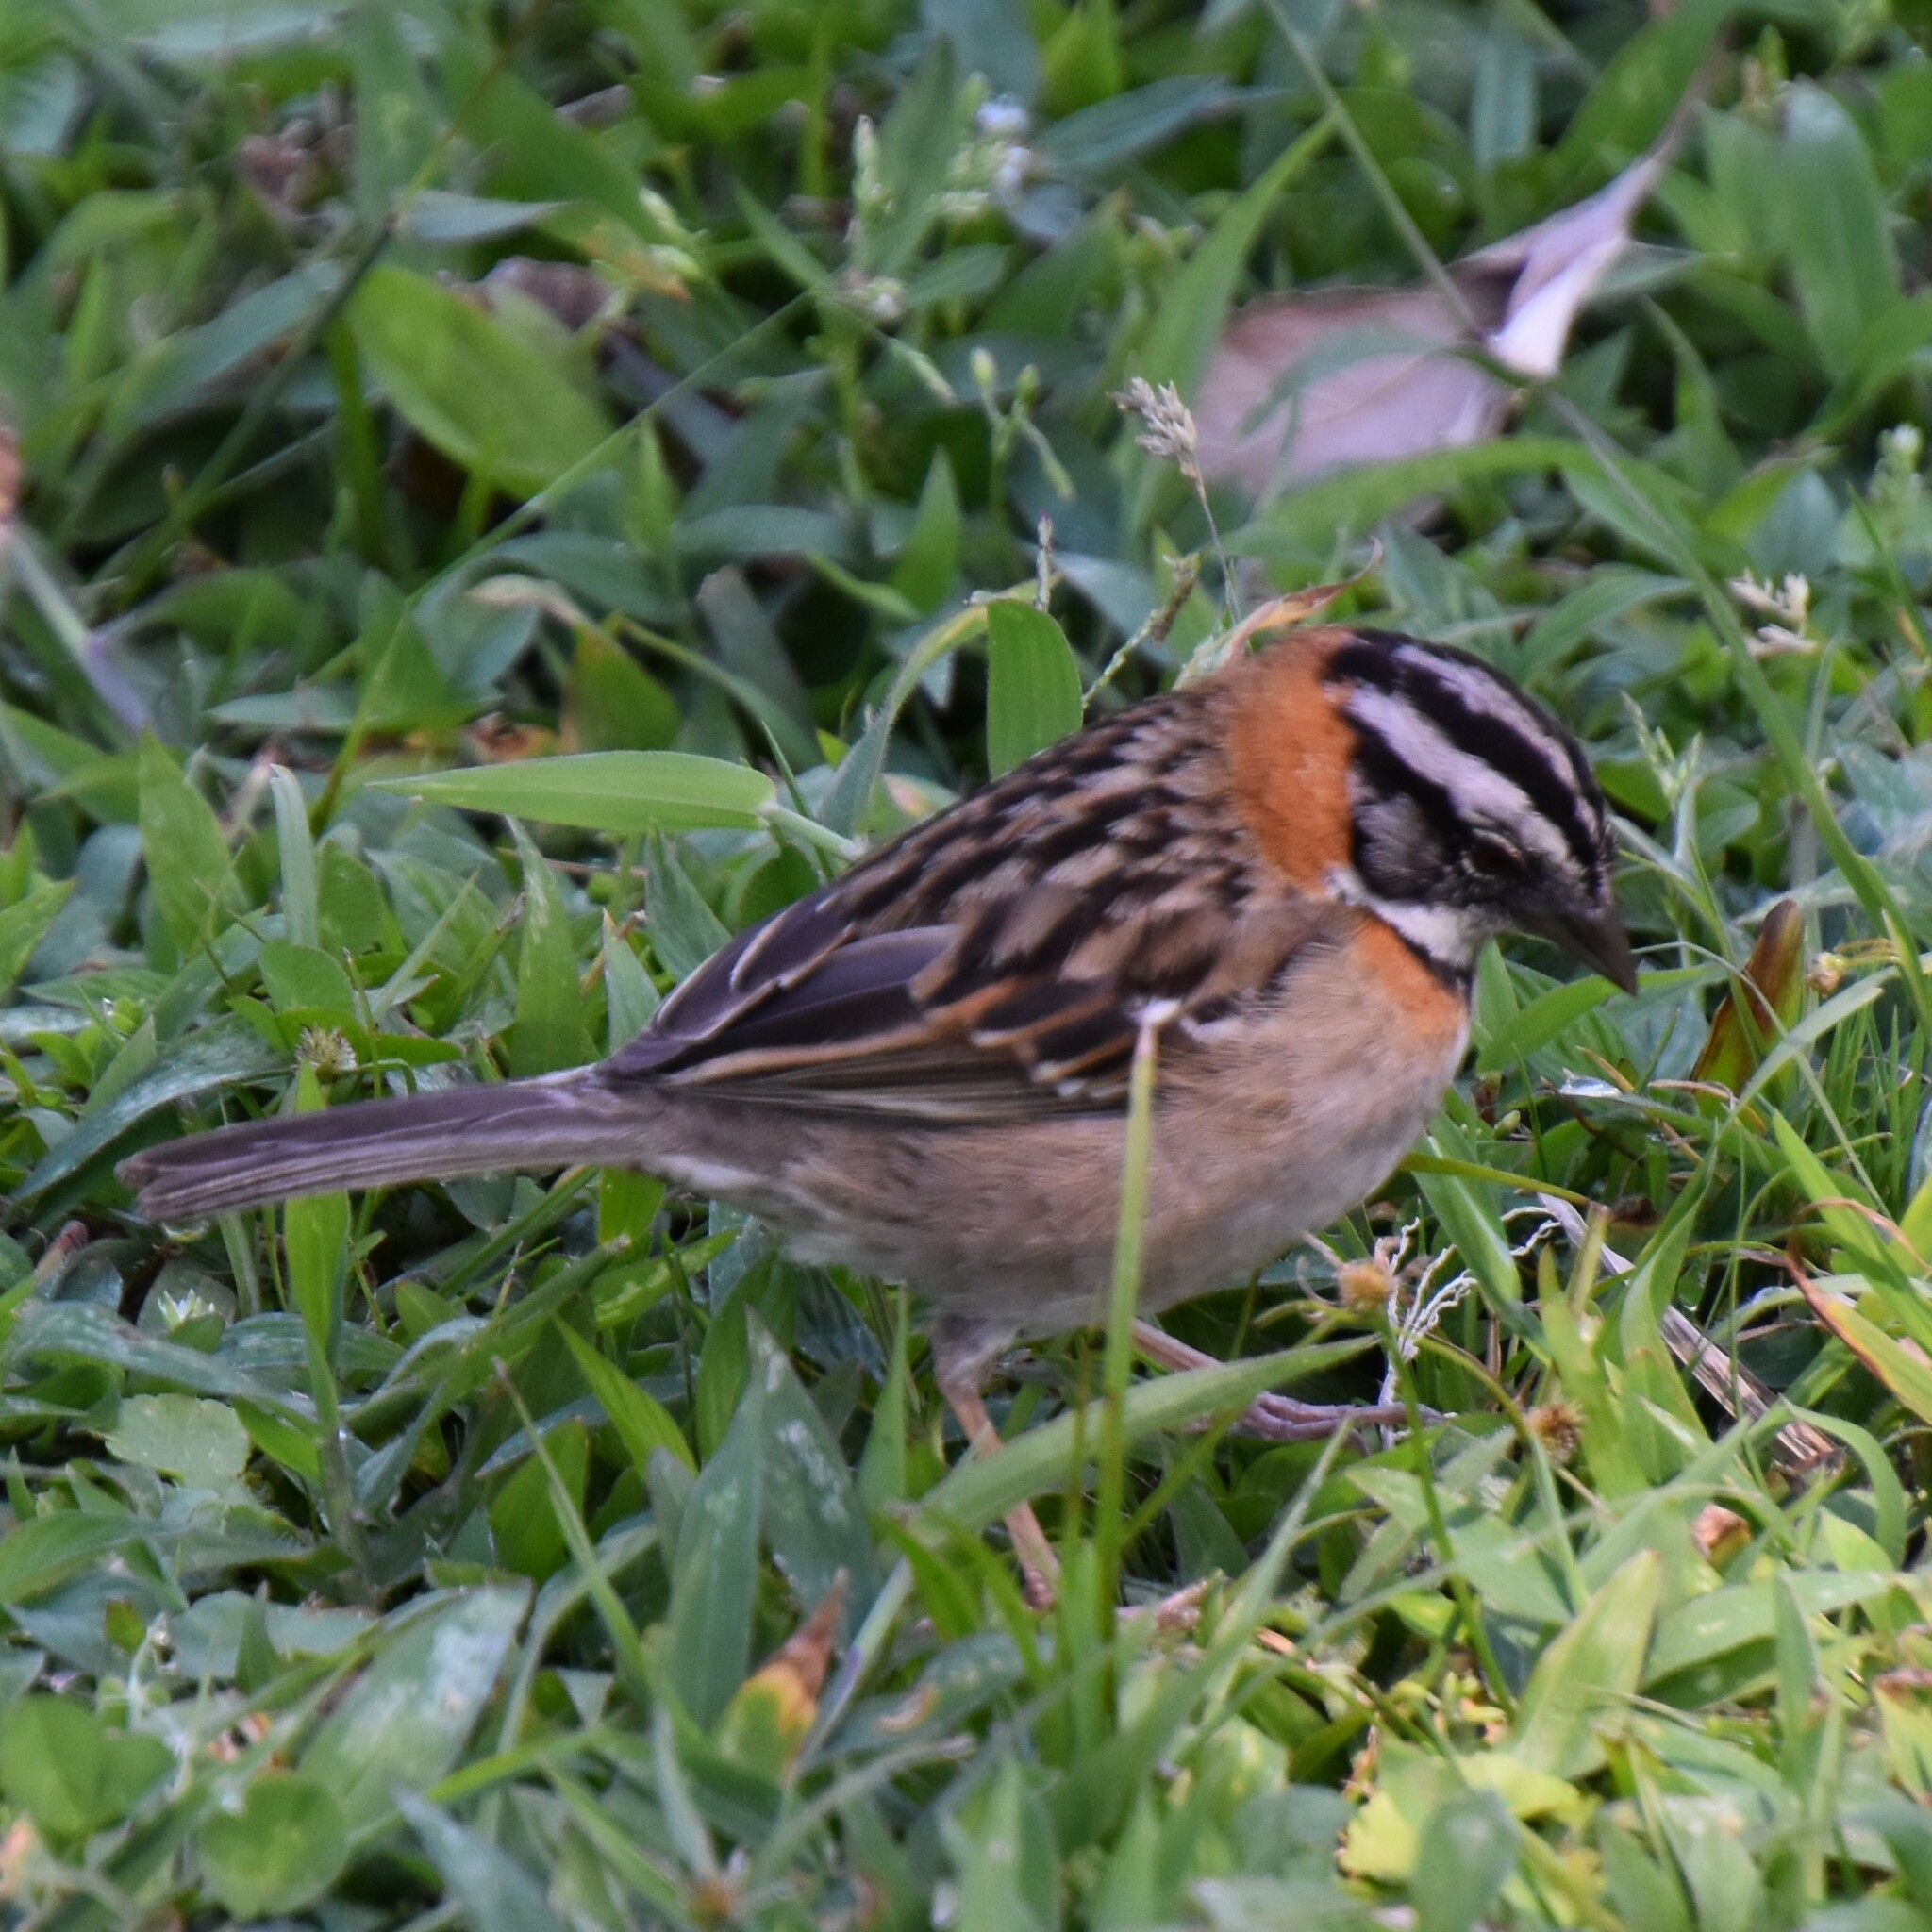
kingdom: Animalia
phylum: Chordata
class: Aves
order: Passeriformes
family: Passerellidae
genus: Zonotrichia
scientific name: Zonotrichia capensis
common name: Rufous-collared sparrow
